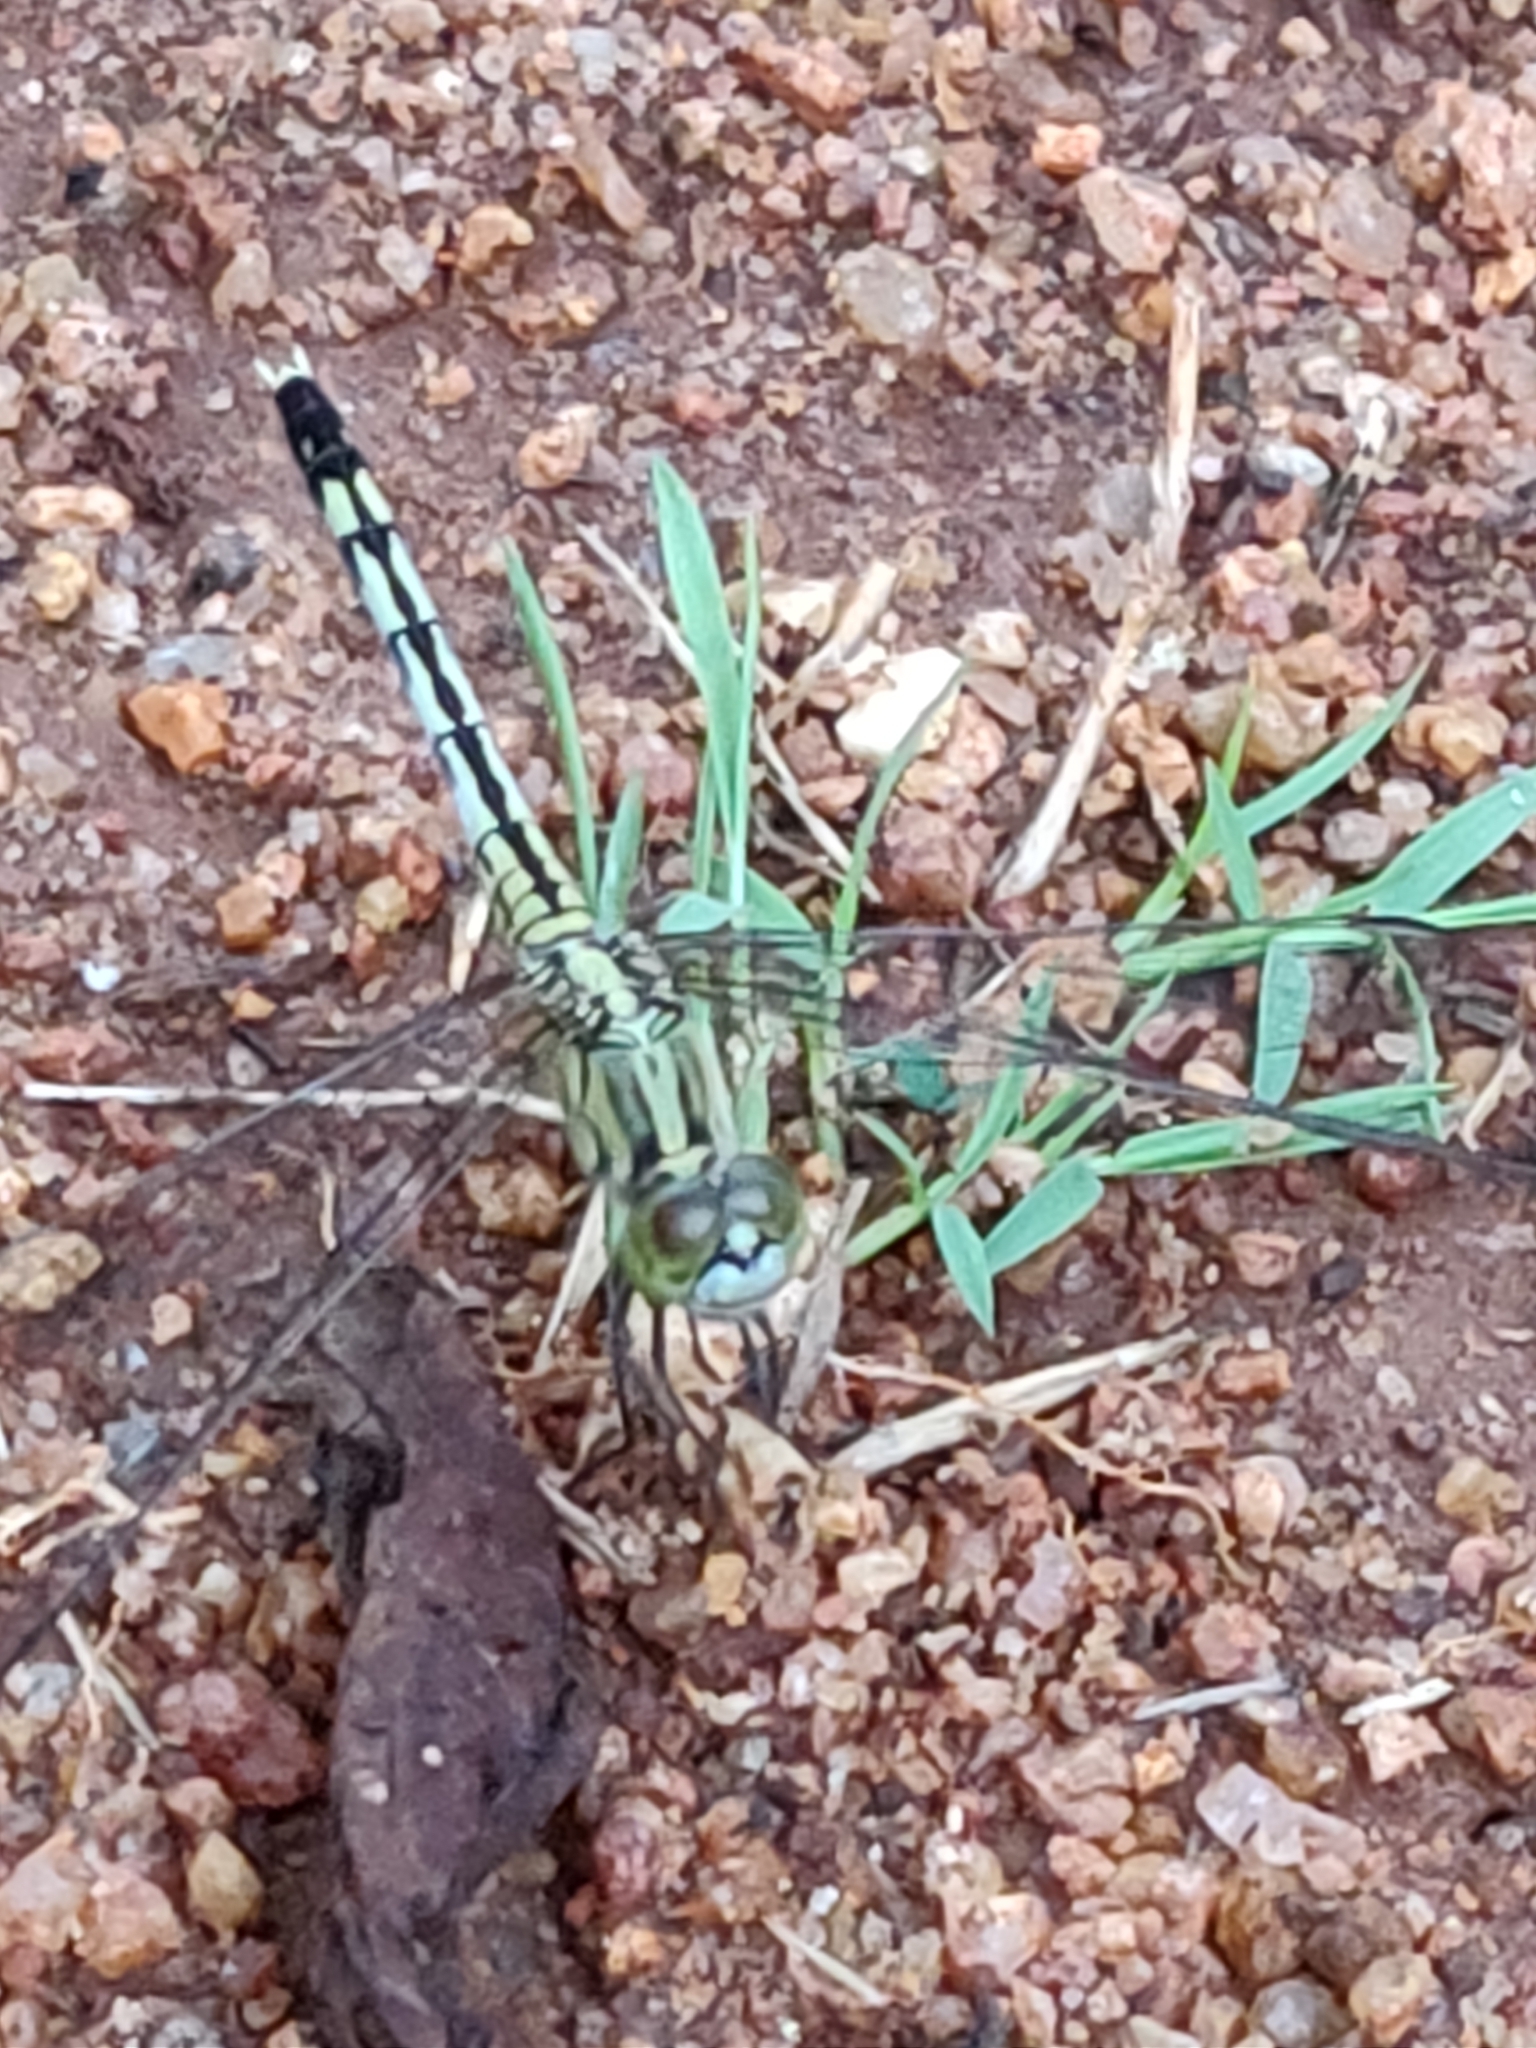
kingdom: Animalia
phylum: Arthropoda
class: Insecta
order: Odonata
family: Libellulidae
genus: Diplacodes
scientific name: Diplacodes trivialis
